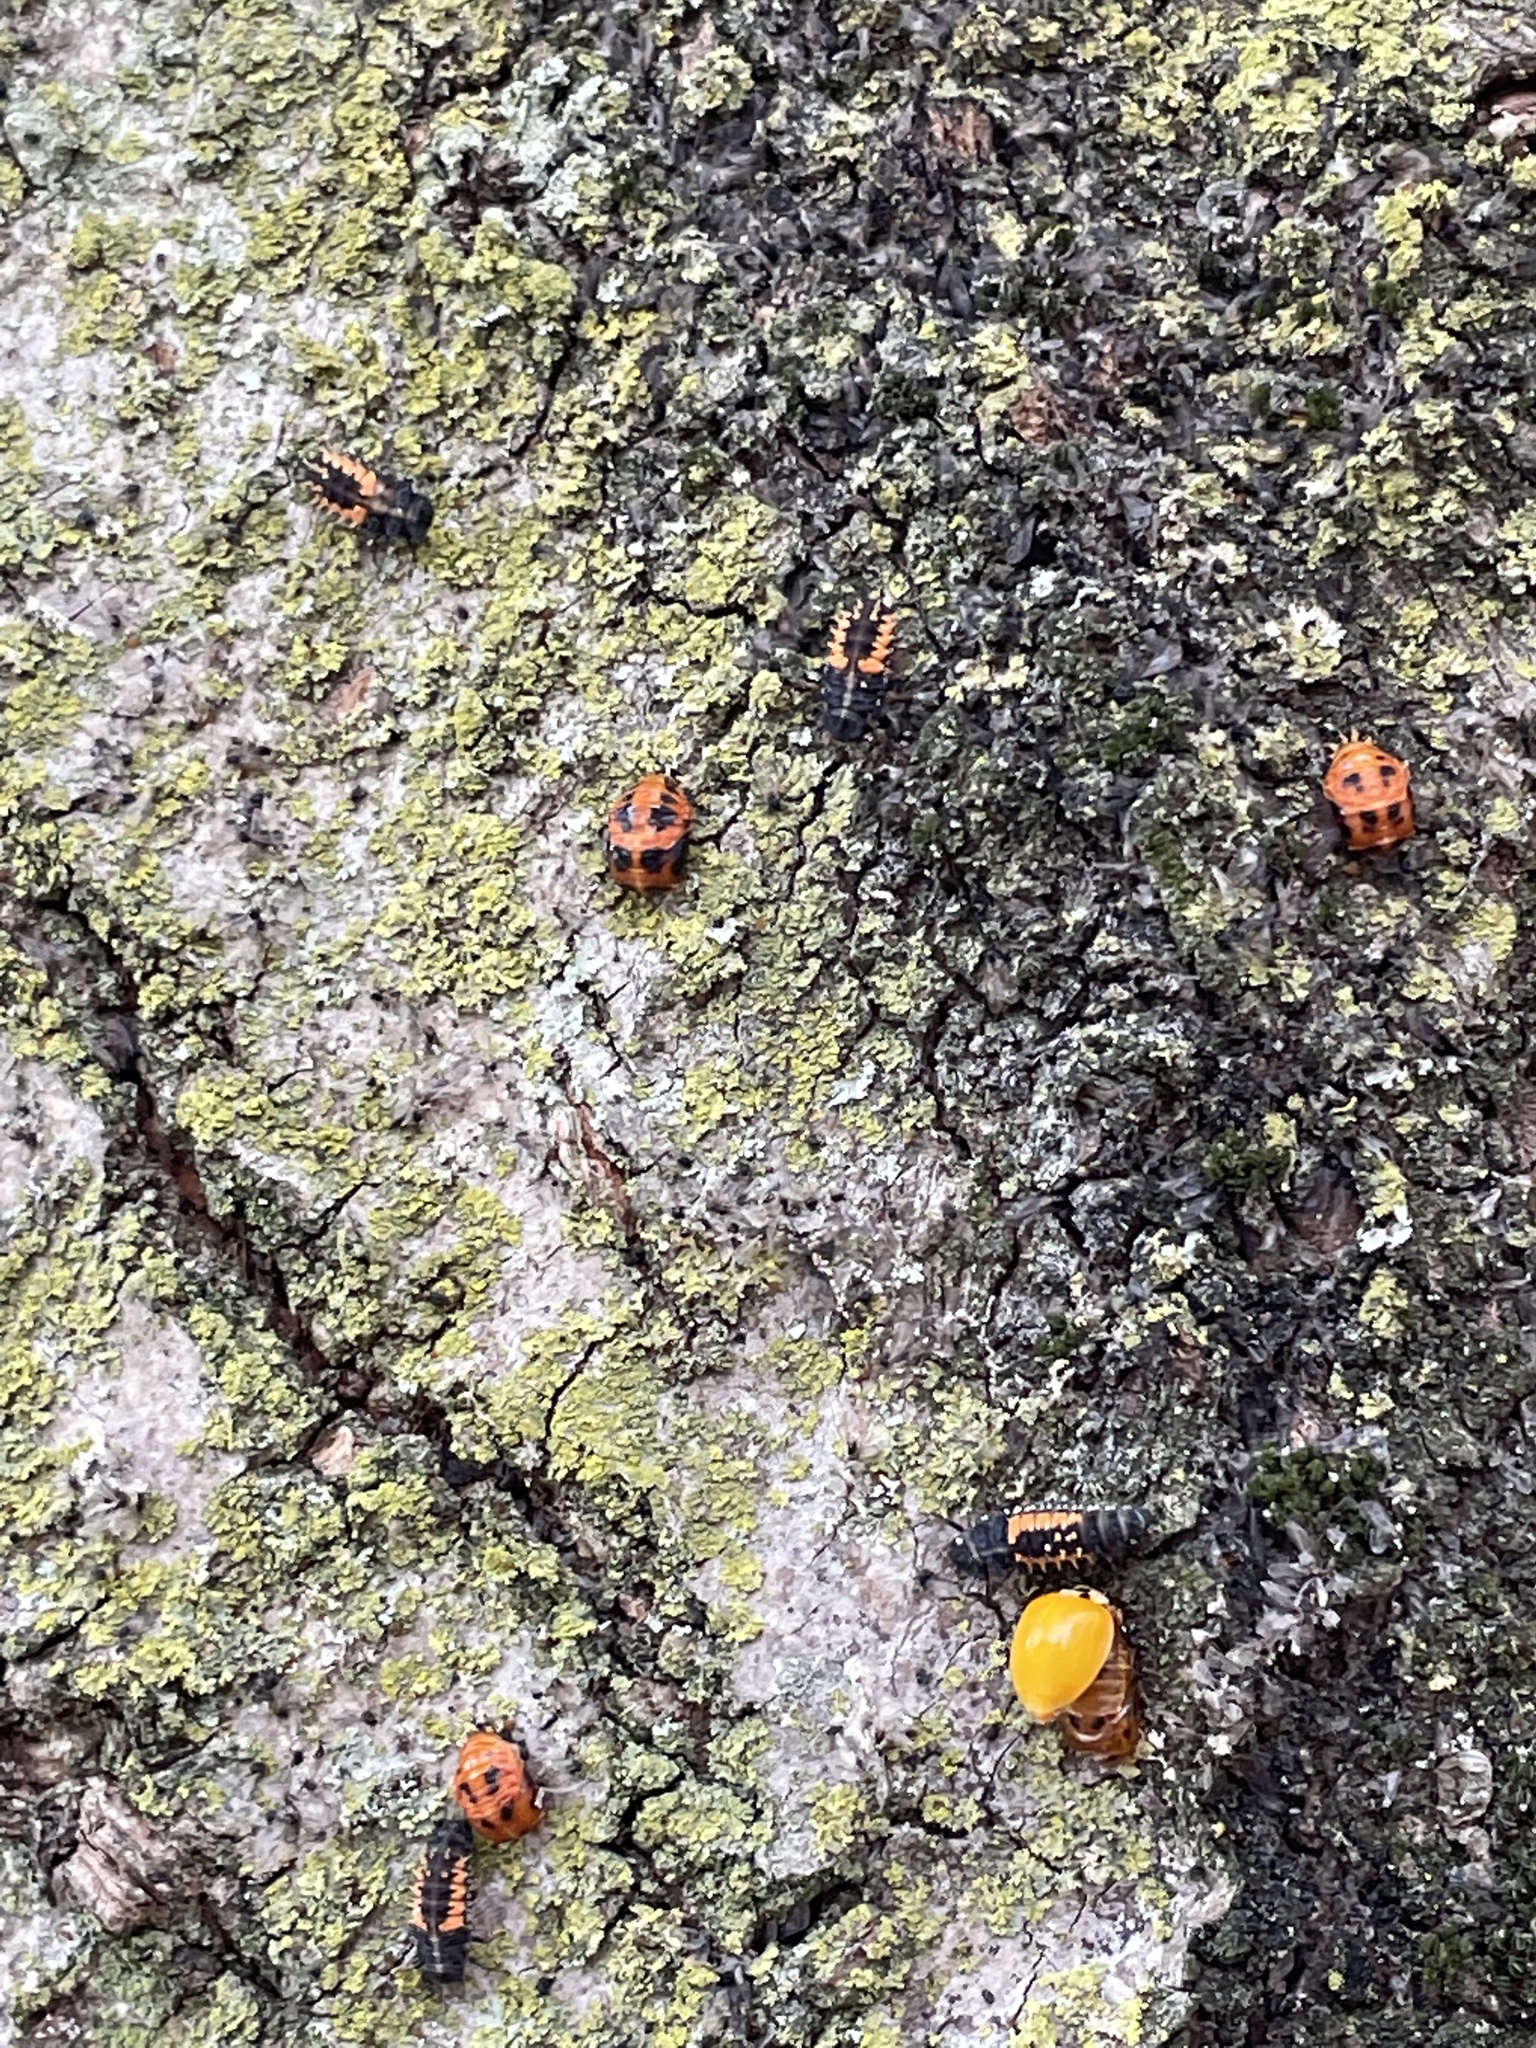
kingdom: Animalia
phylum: Arthropoda
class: Insecta
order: Coleoptera
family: Coccinellidae
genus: Harmonia
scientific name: Harmonia axyridis
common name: Harlequin ladybird
